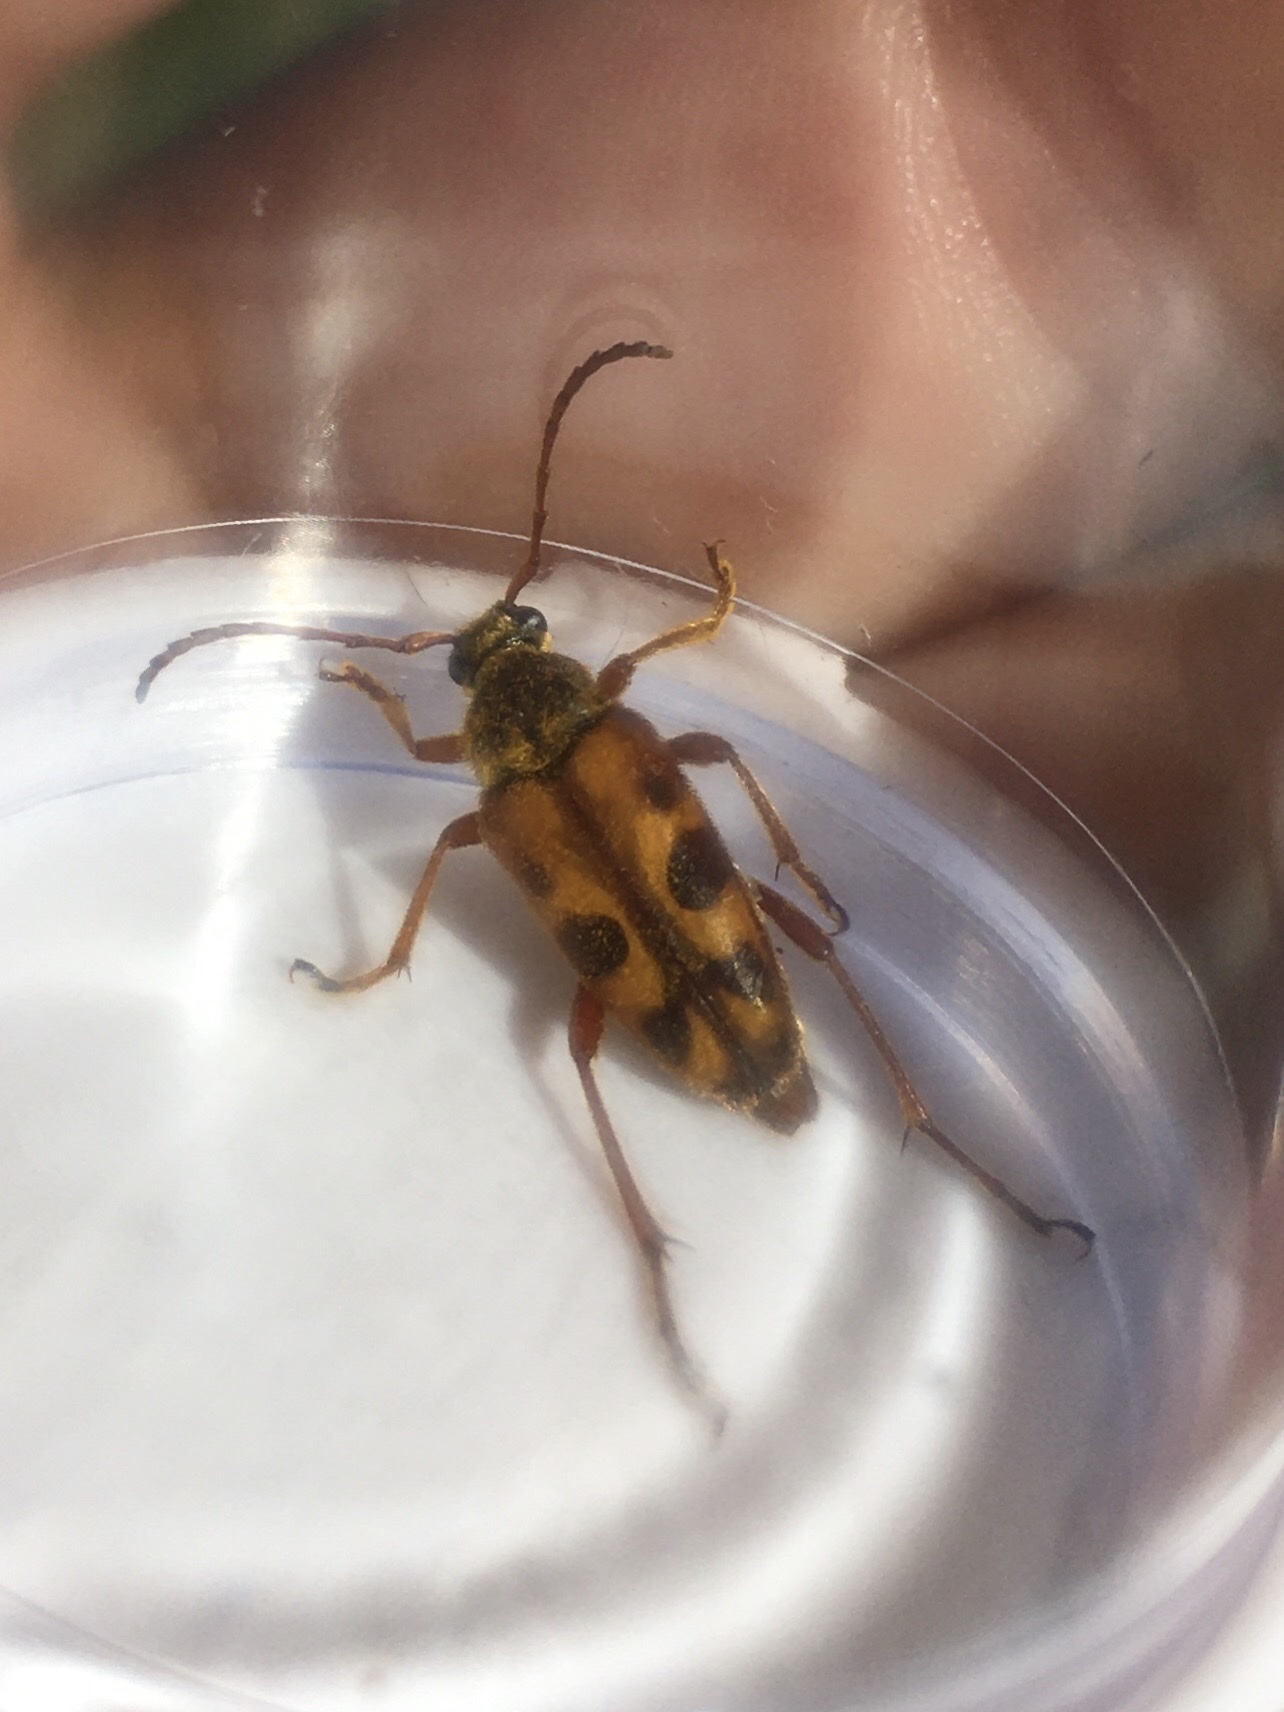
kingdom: Animalia
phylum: Arthropoda
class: Insecta
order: Coleoptera
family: Cerambycidae
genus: Typocerus
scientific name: Typocerus octonotatus
